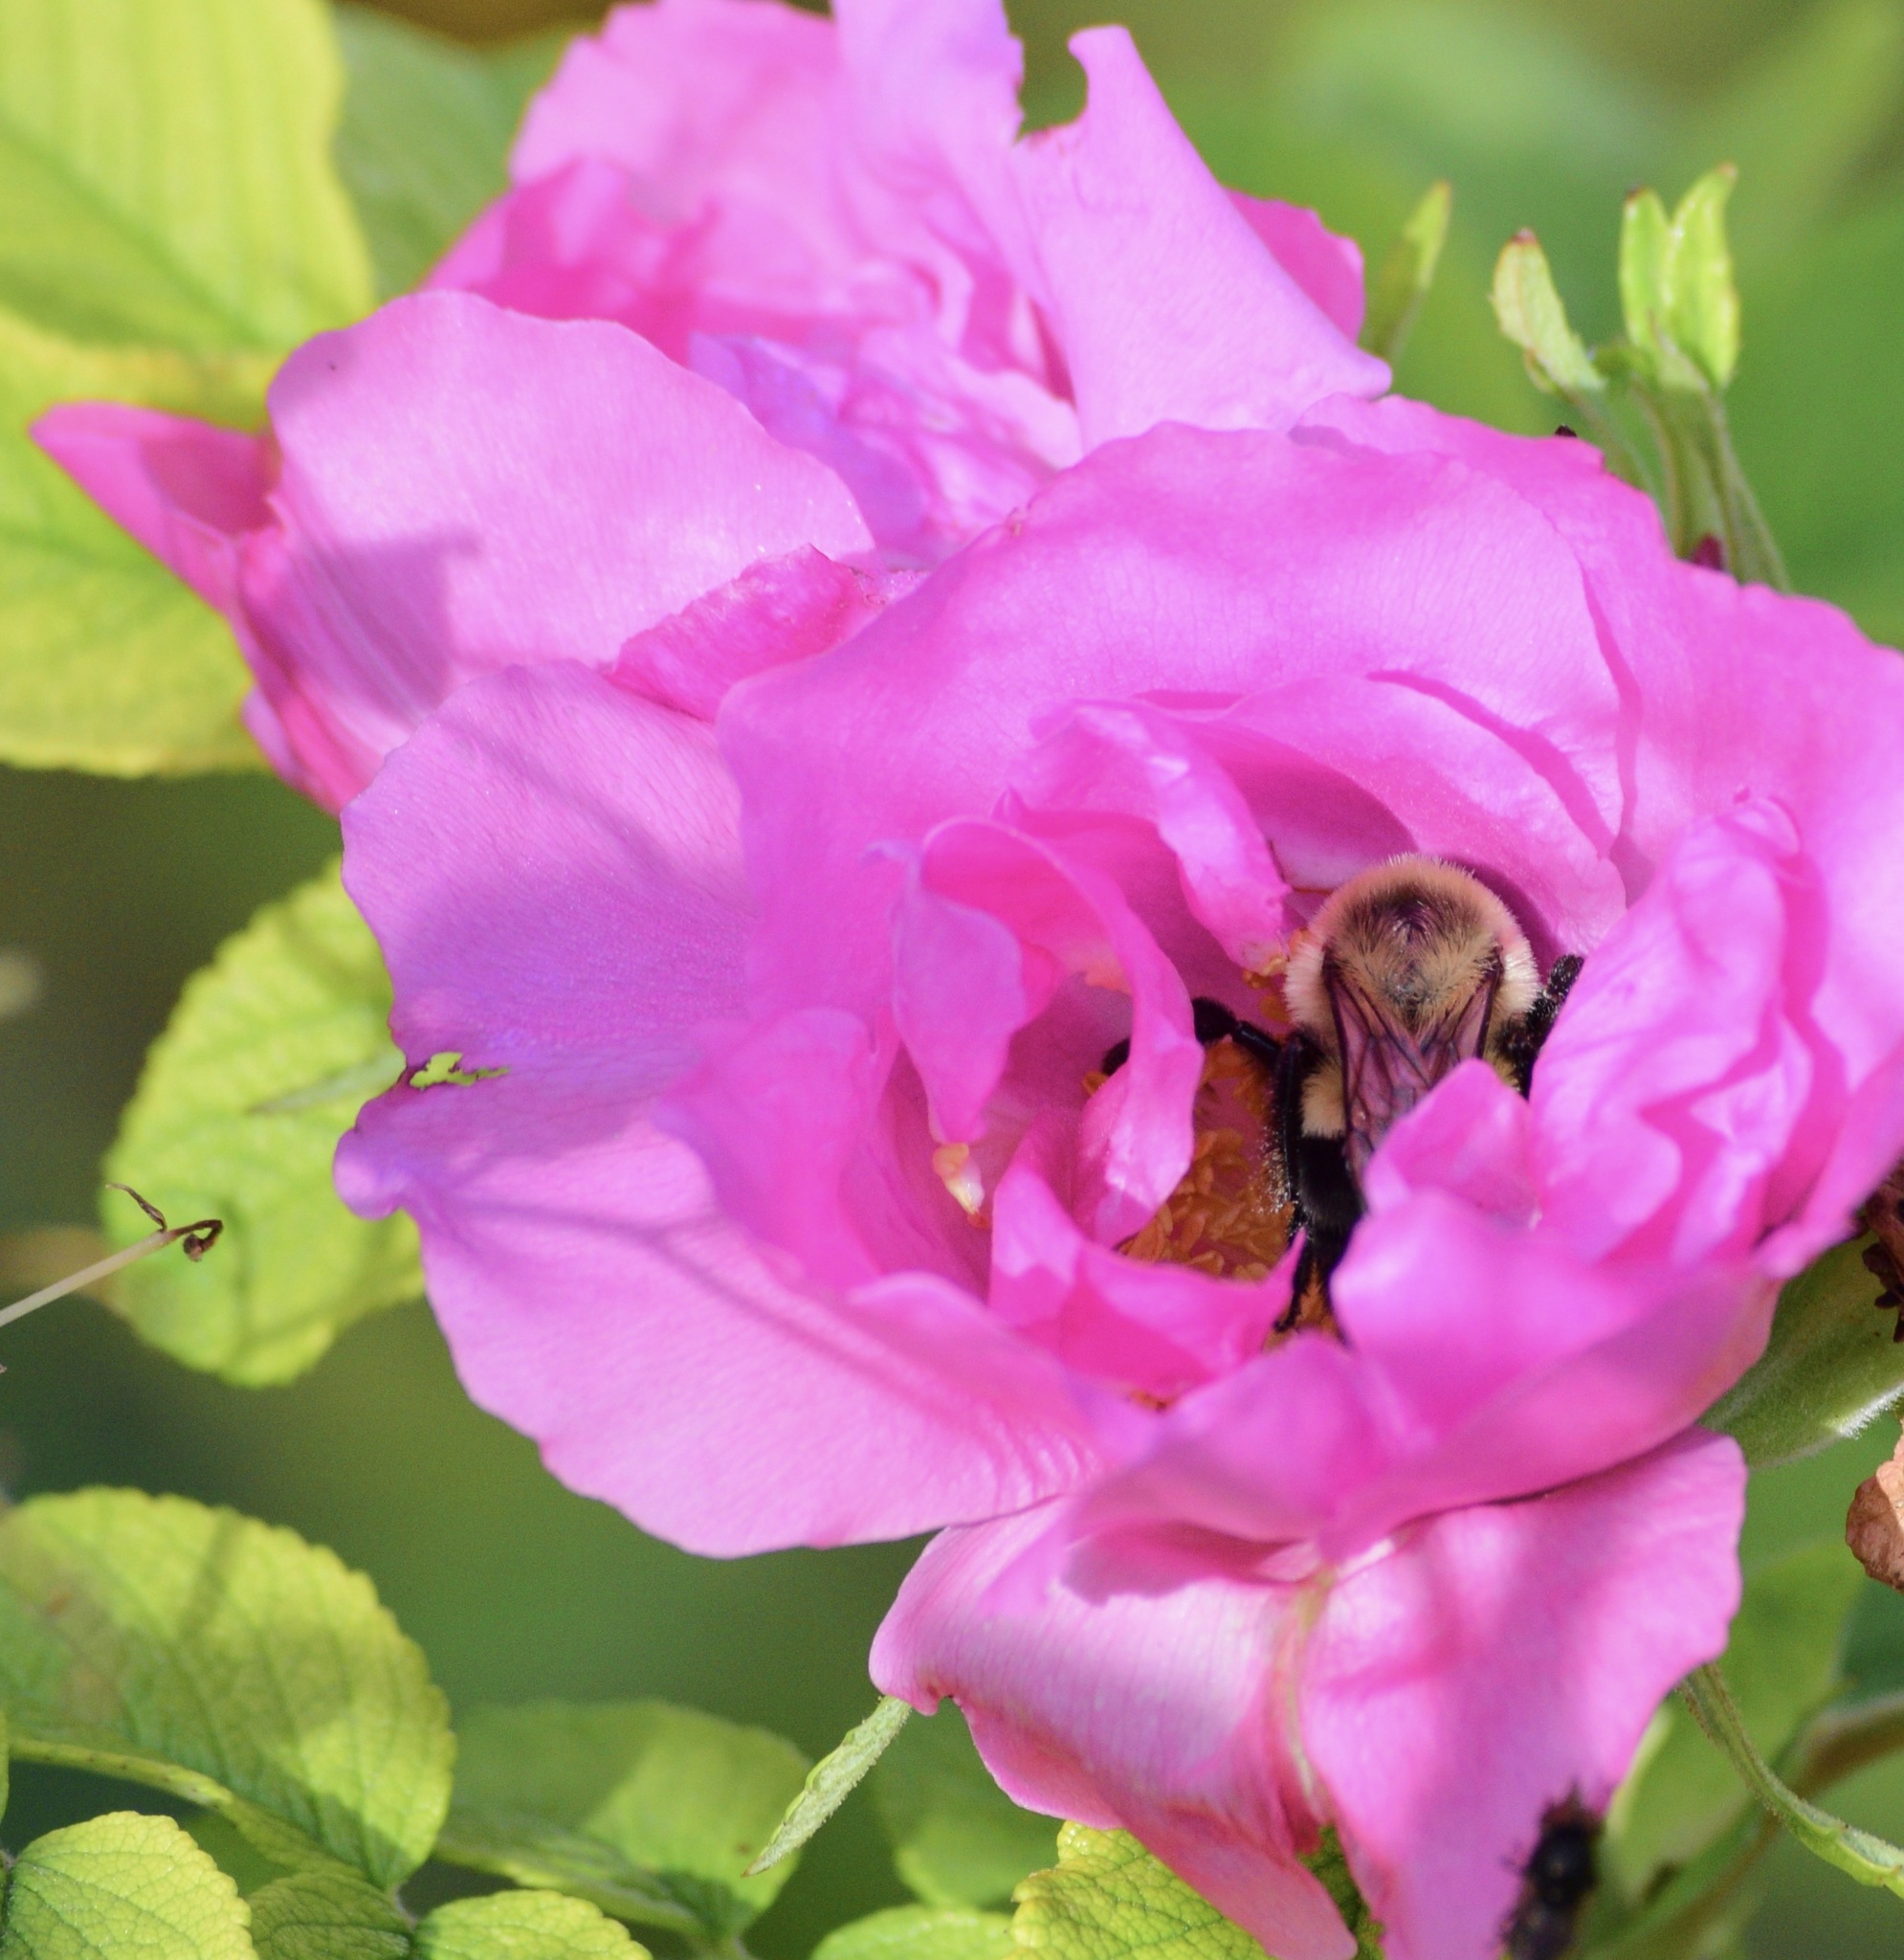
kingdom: Animalia
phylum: Arthropoda
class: Insecta
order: Hymenoptera
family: Apidae
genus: Bombus
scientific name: Bombus impatiens
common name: Common eastern bumble bee
